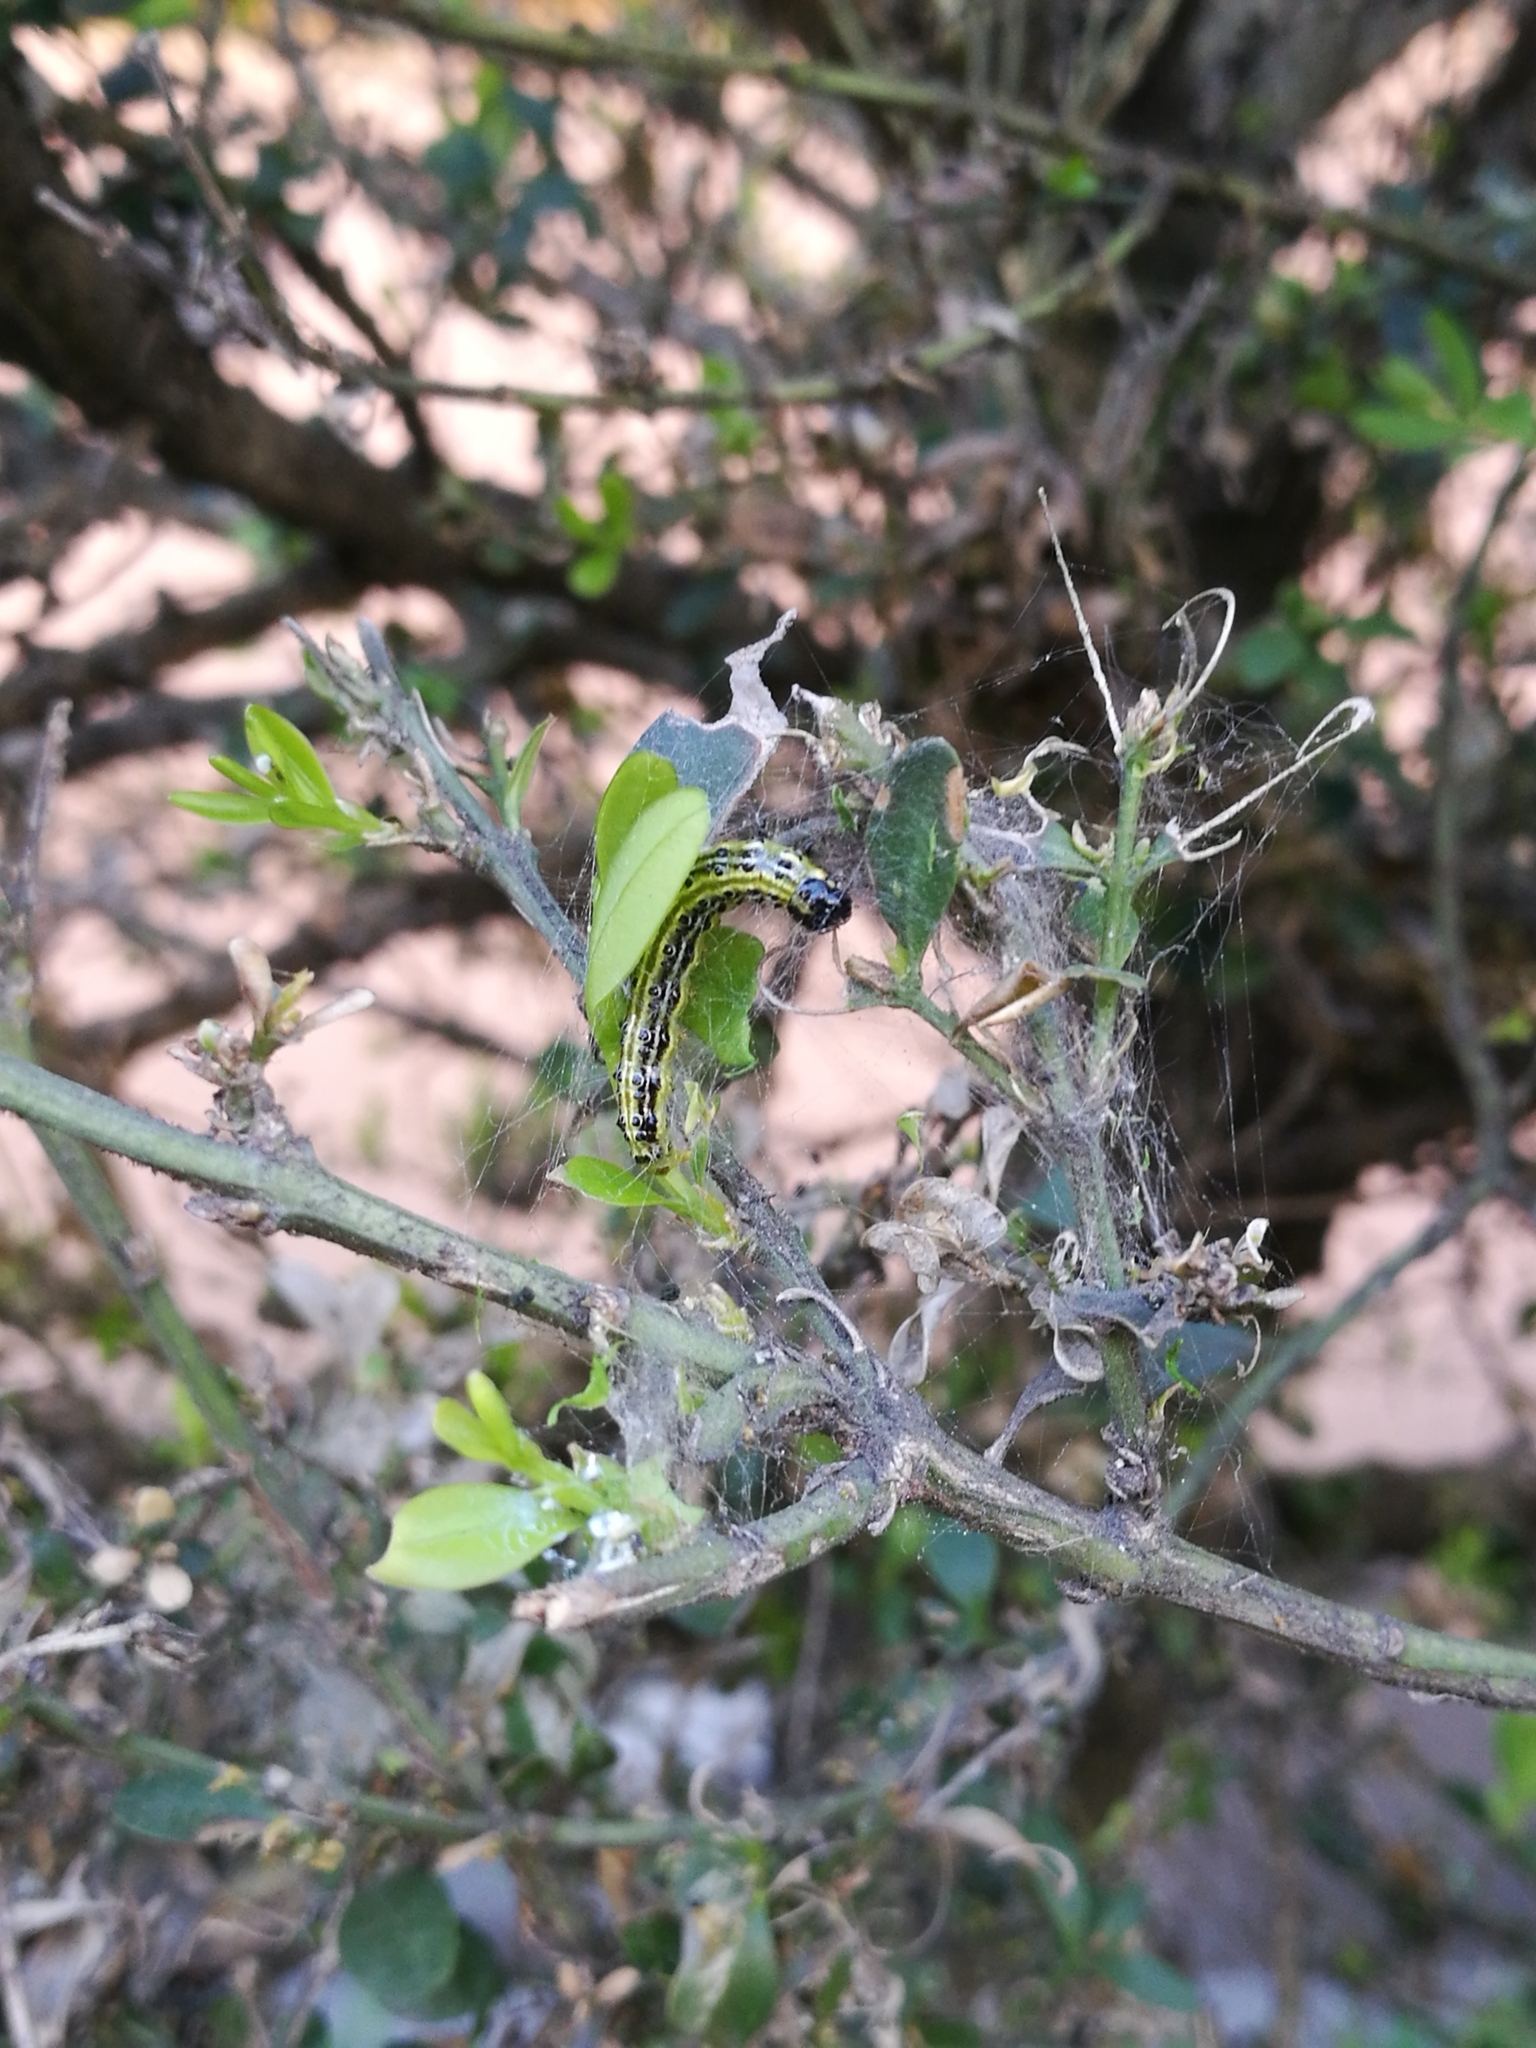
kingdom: Animalia
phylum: Arthropoda
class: Insecta
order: Lepidoptera
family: Crambidae
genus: Cydalima
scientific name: Cydalima perspectalis
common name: Box tree moth
